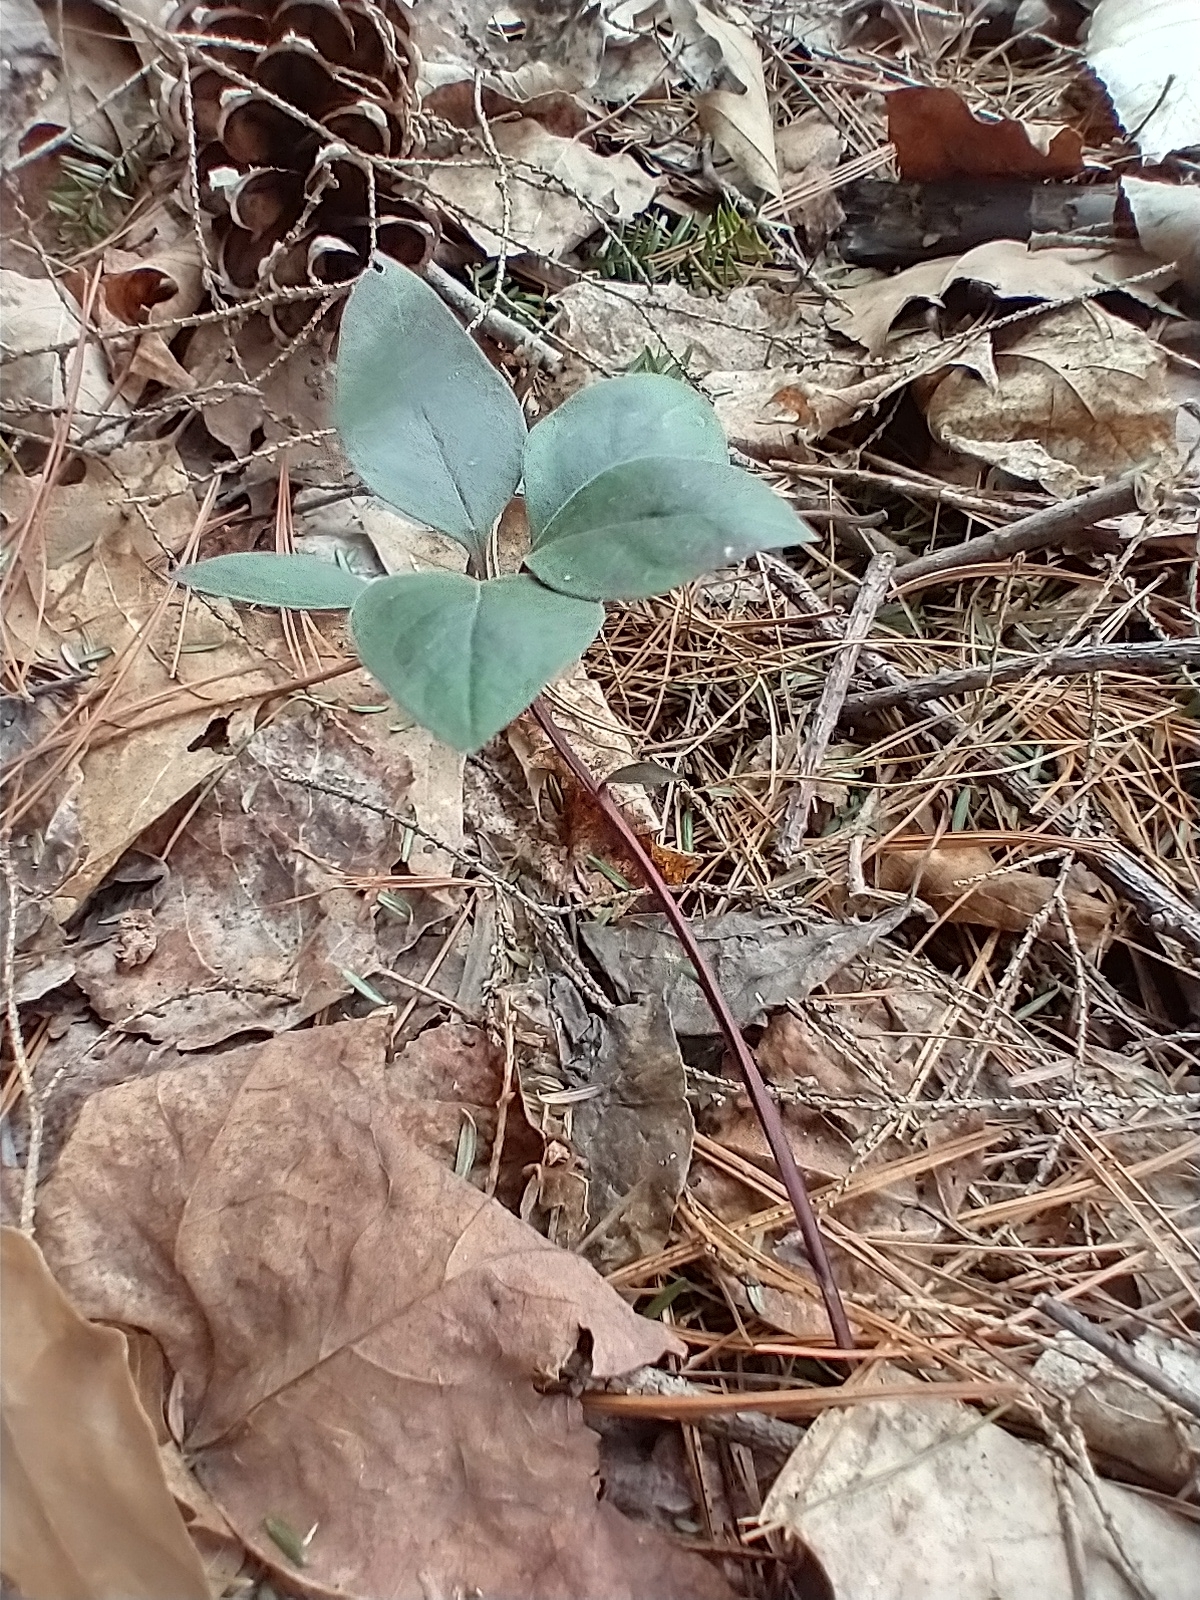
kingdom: Plantae
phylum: Tracheophyta
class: Magnoliopsida
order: Fabales
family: Polygalaceae
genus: Polygaloides
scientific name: Polygaloides paucifolia
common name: Bird-on-the-wing
